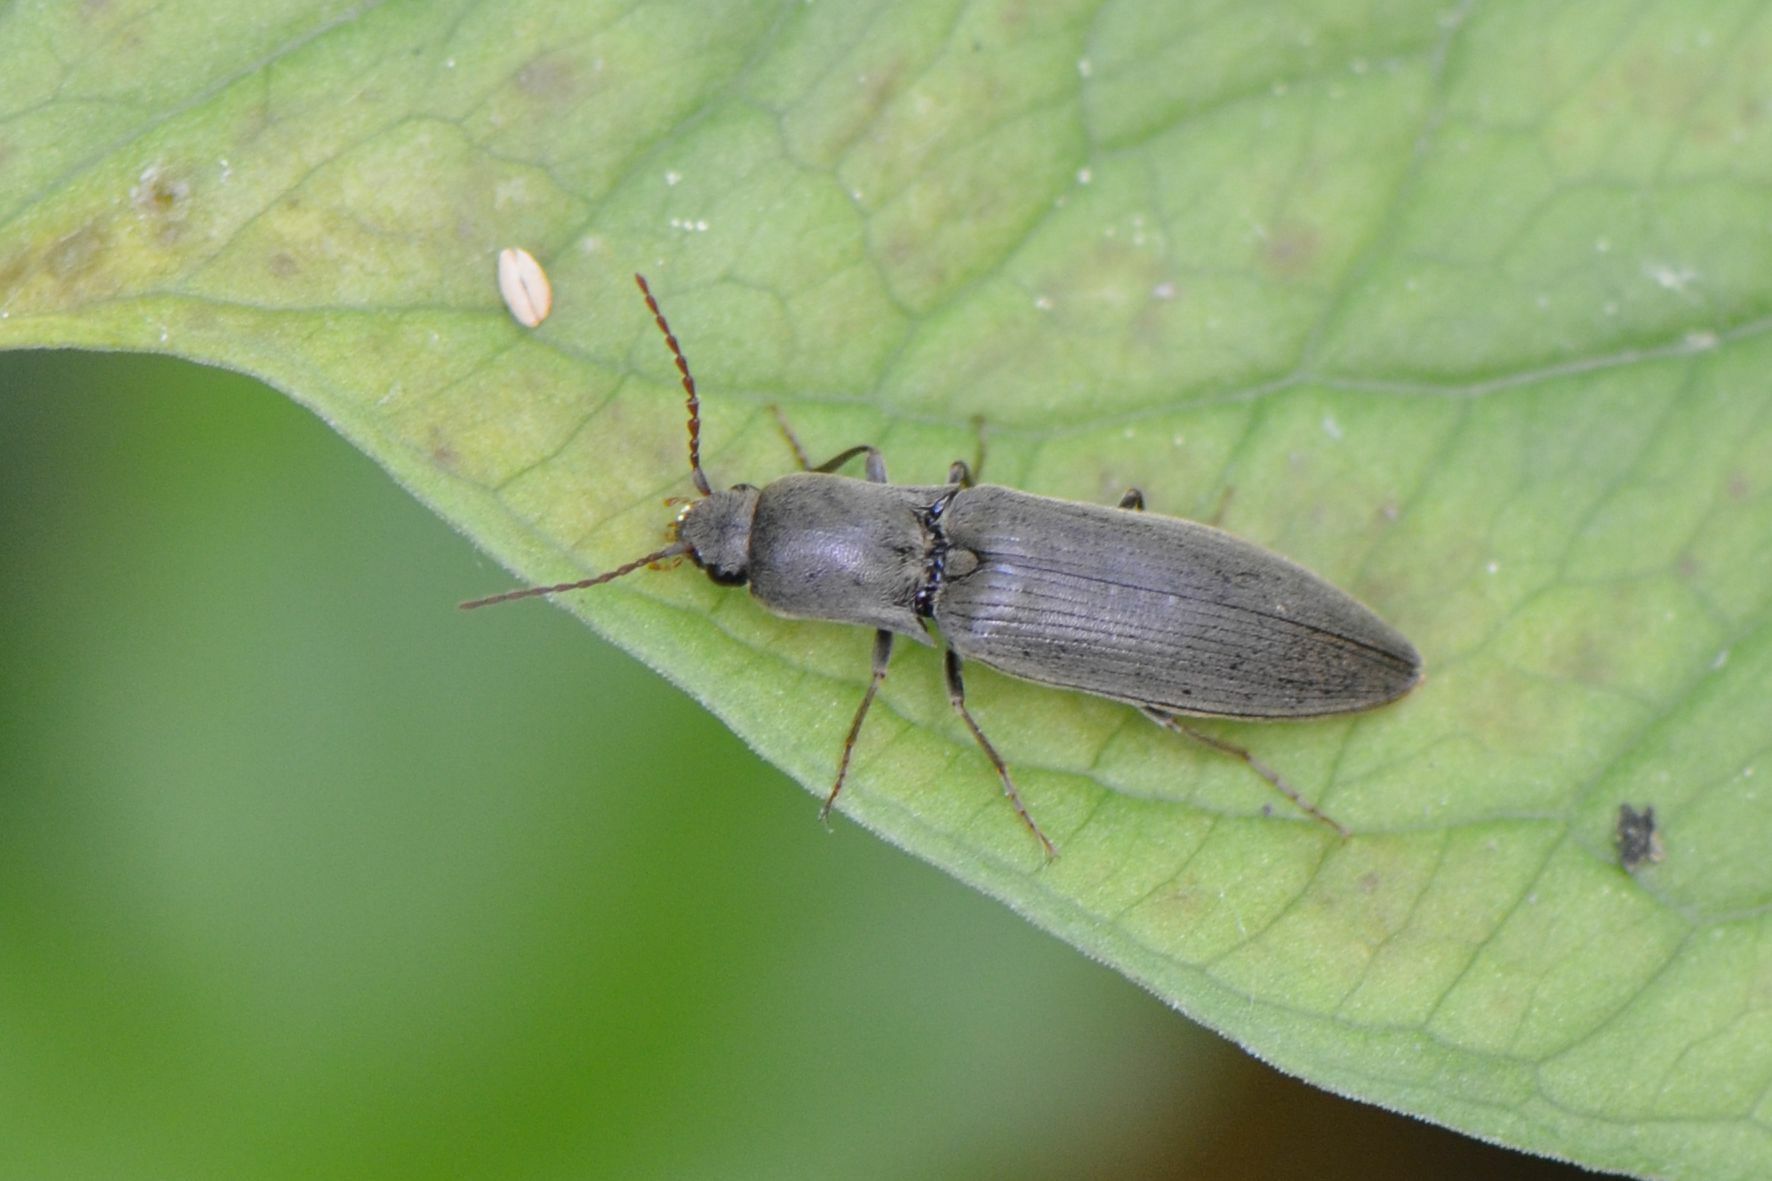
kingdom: Animalia
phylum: Arthropoda
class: Insecta
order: Coleoptera
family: Elateridae
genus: Agriotes
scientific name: Agriotes pilosellus
